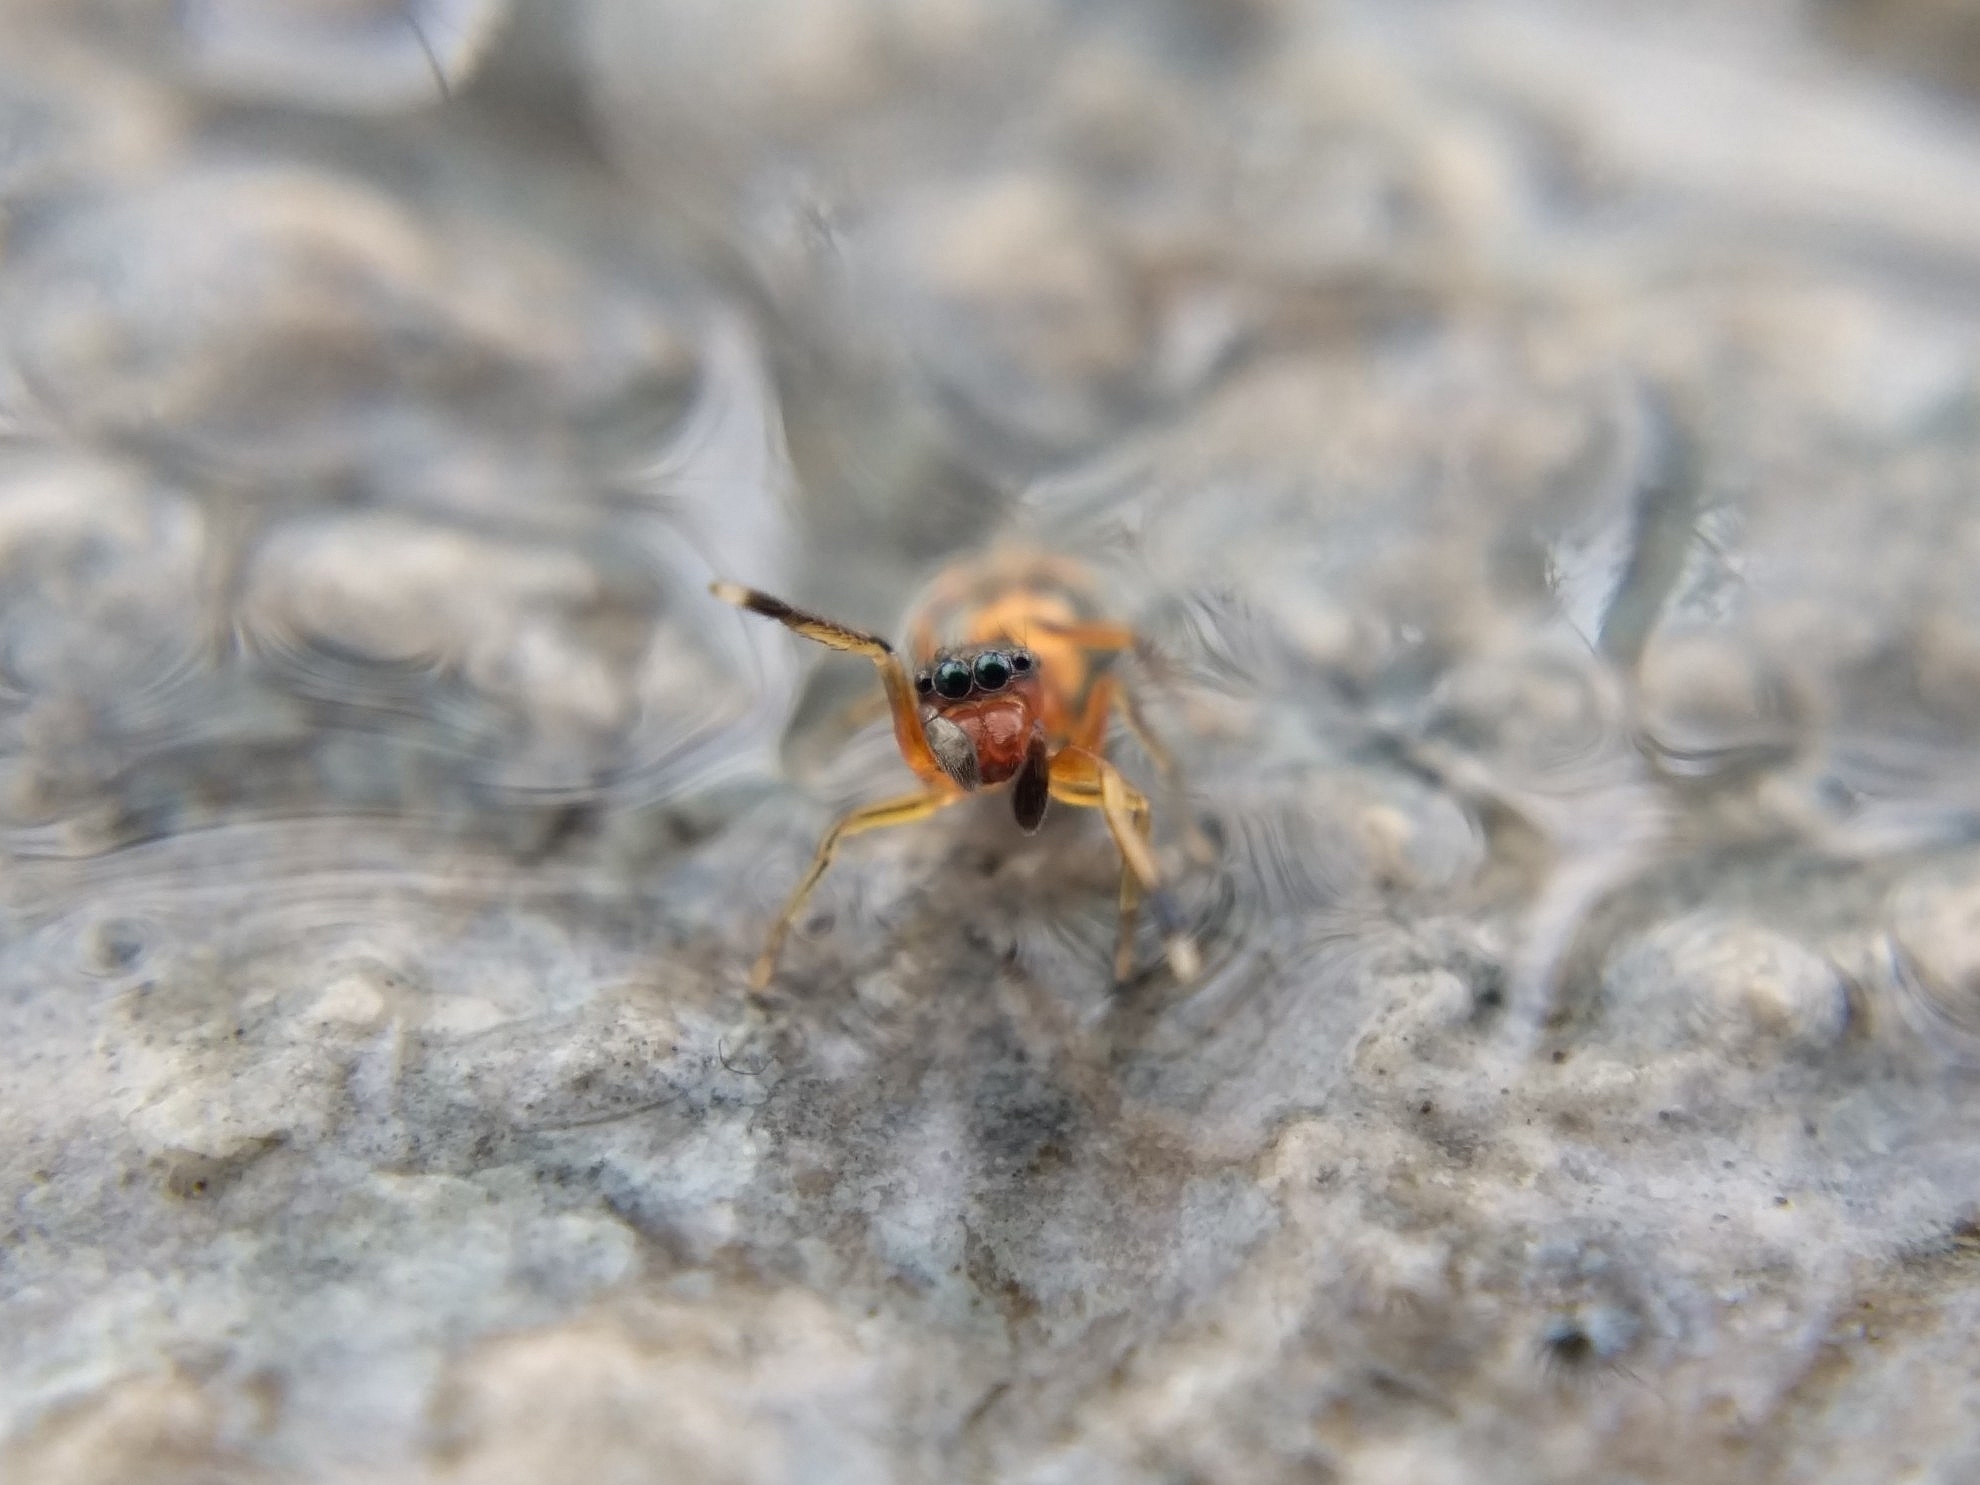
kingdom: Animalia
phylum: Arthropoda
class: Arachnida
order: Araneae
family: Salticidae
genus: Myrmarachne
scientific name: Myrmarachne formicaria
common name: Ant mimic jumping spider
